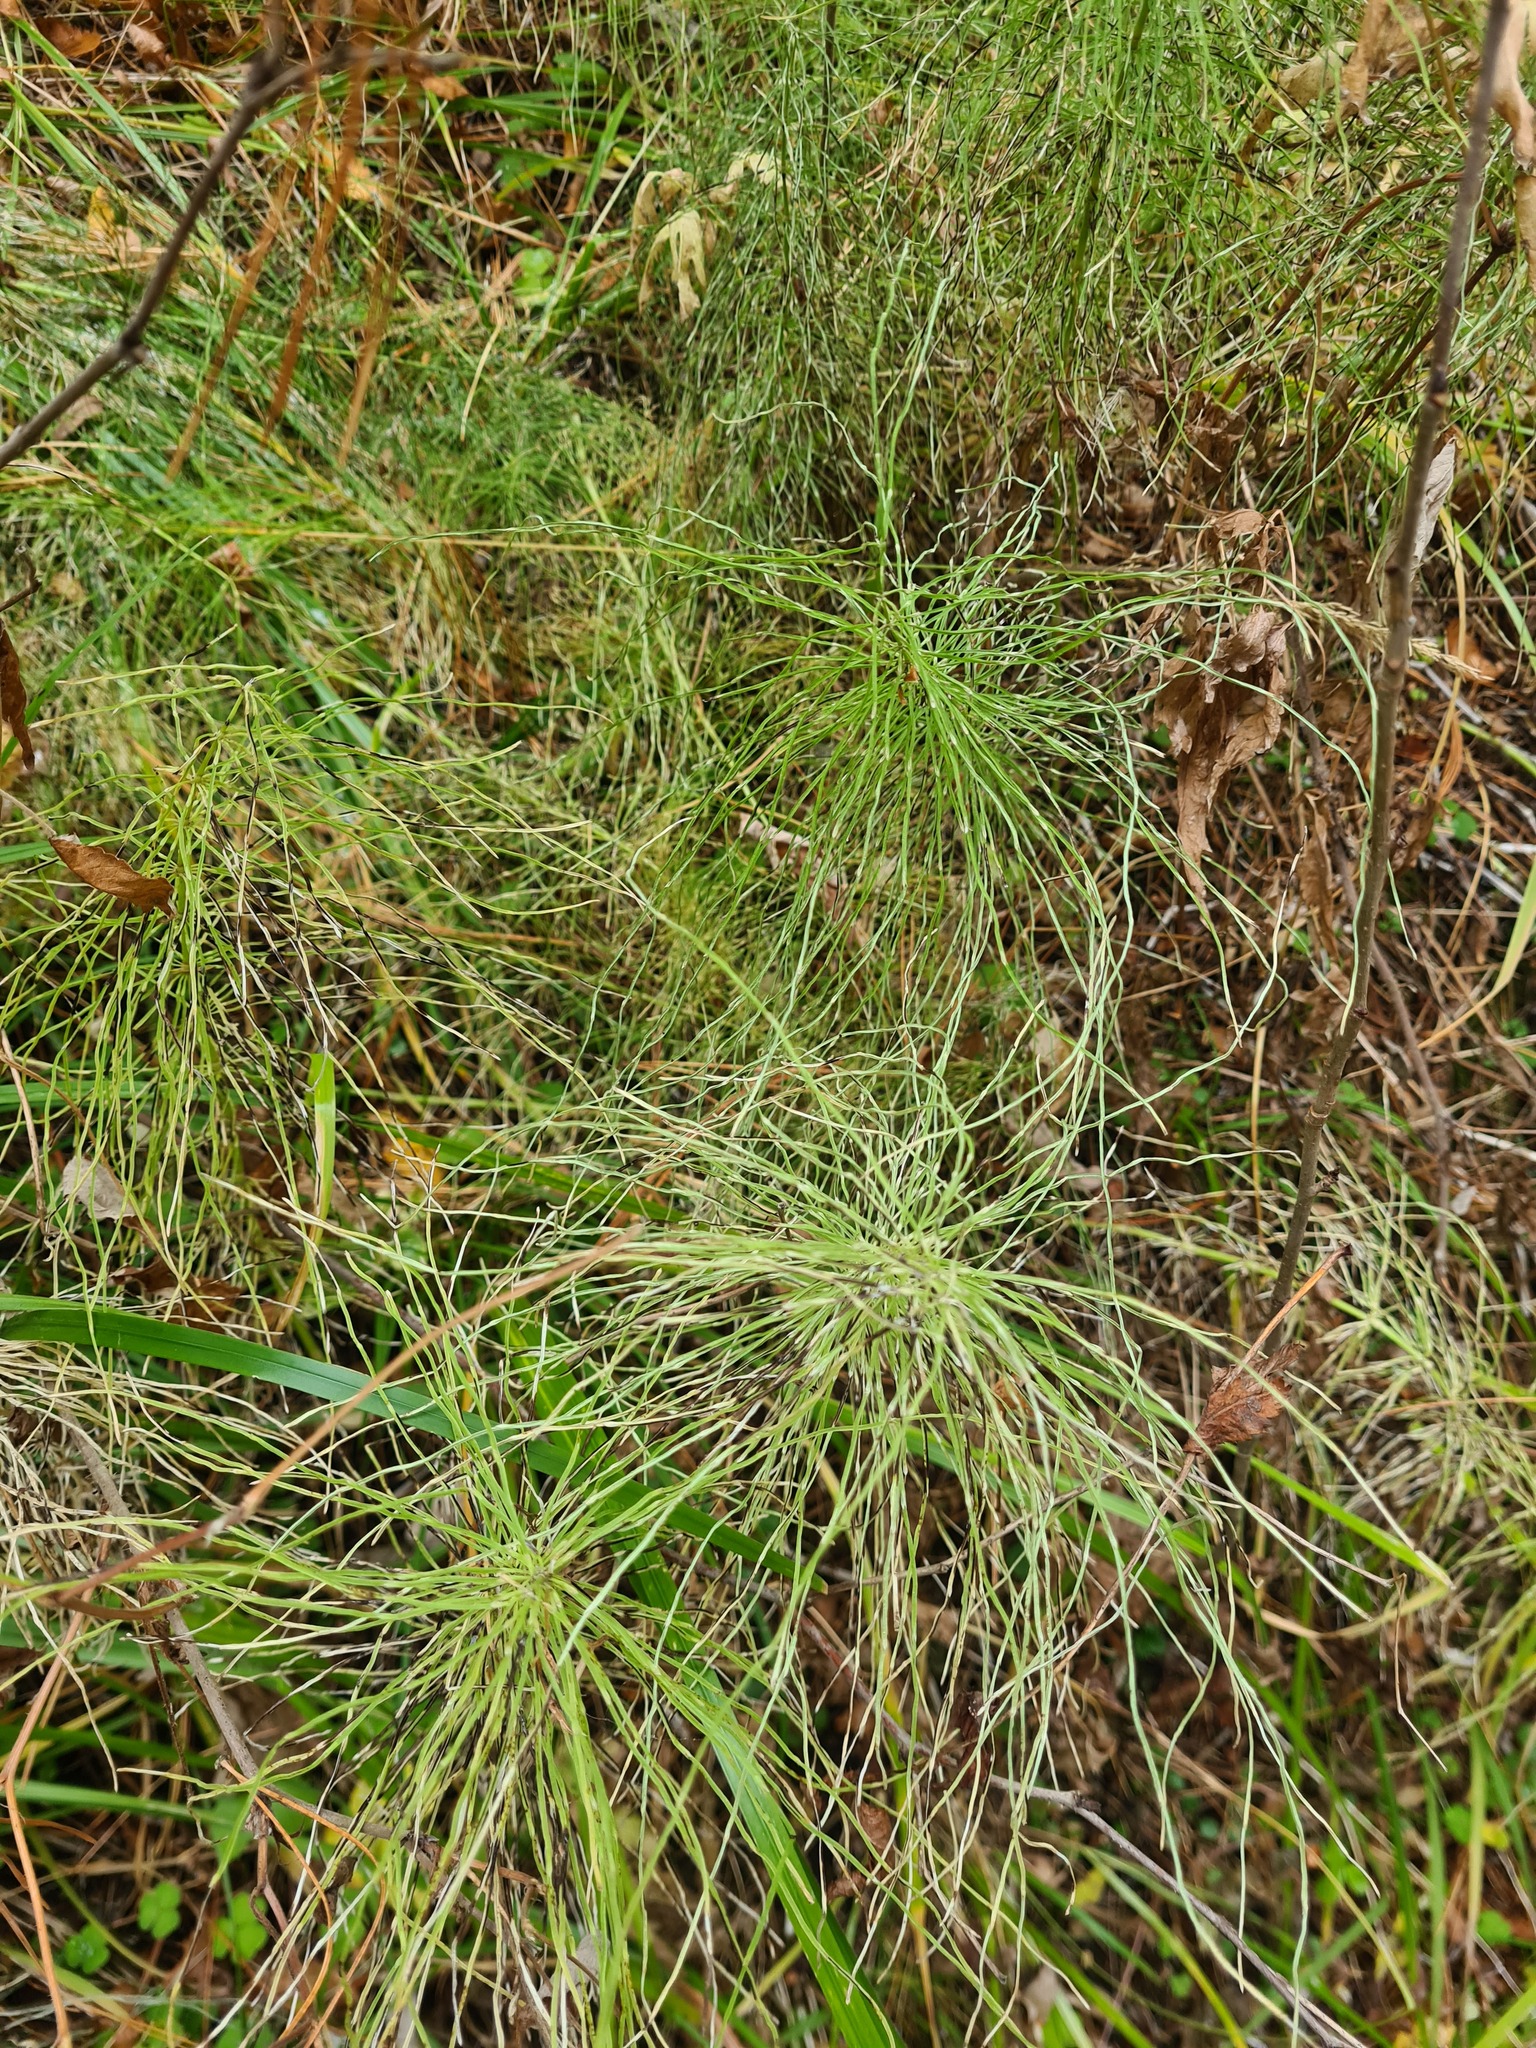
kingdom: Plantae
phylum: Tracheophyta
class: Polypodiopsida
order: Equisetales
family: Equisetaceae
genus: Equisetum
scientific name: Equisetum pratense
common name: Meadow horsetail
